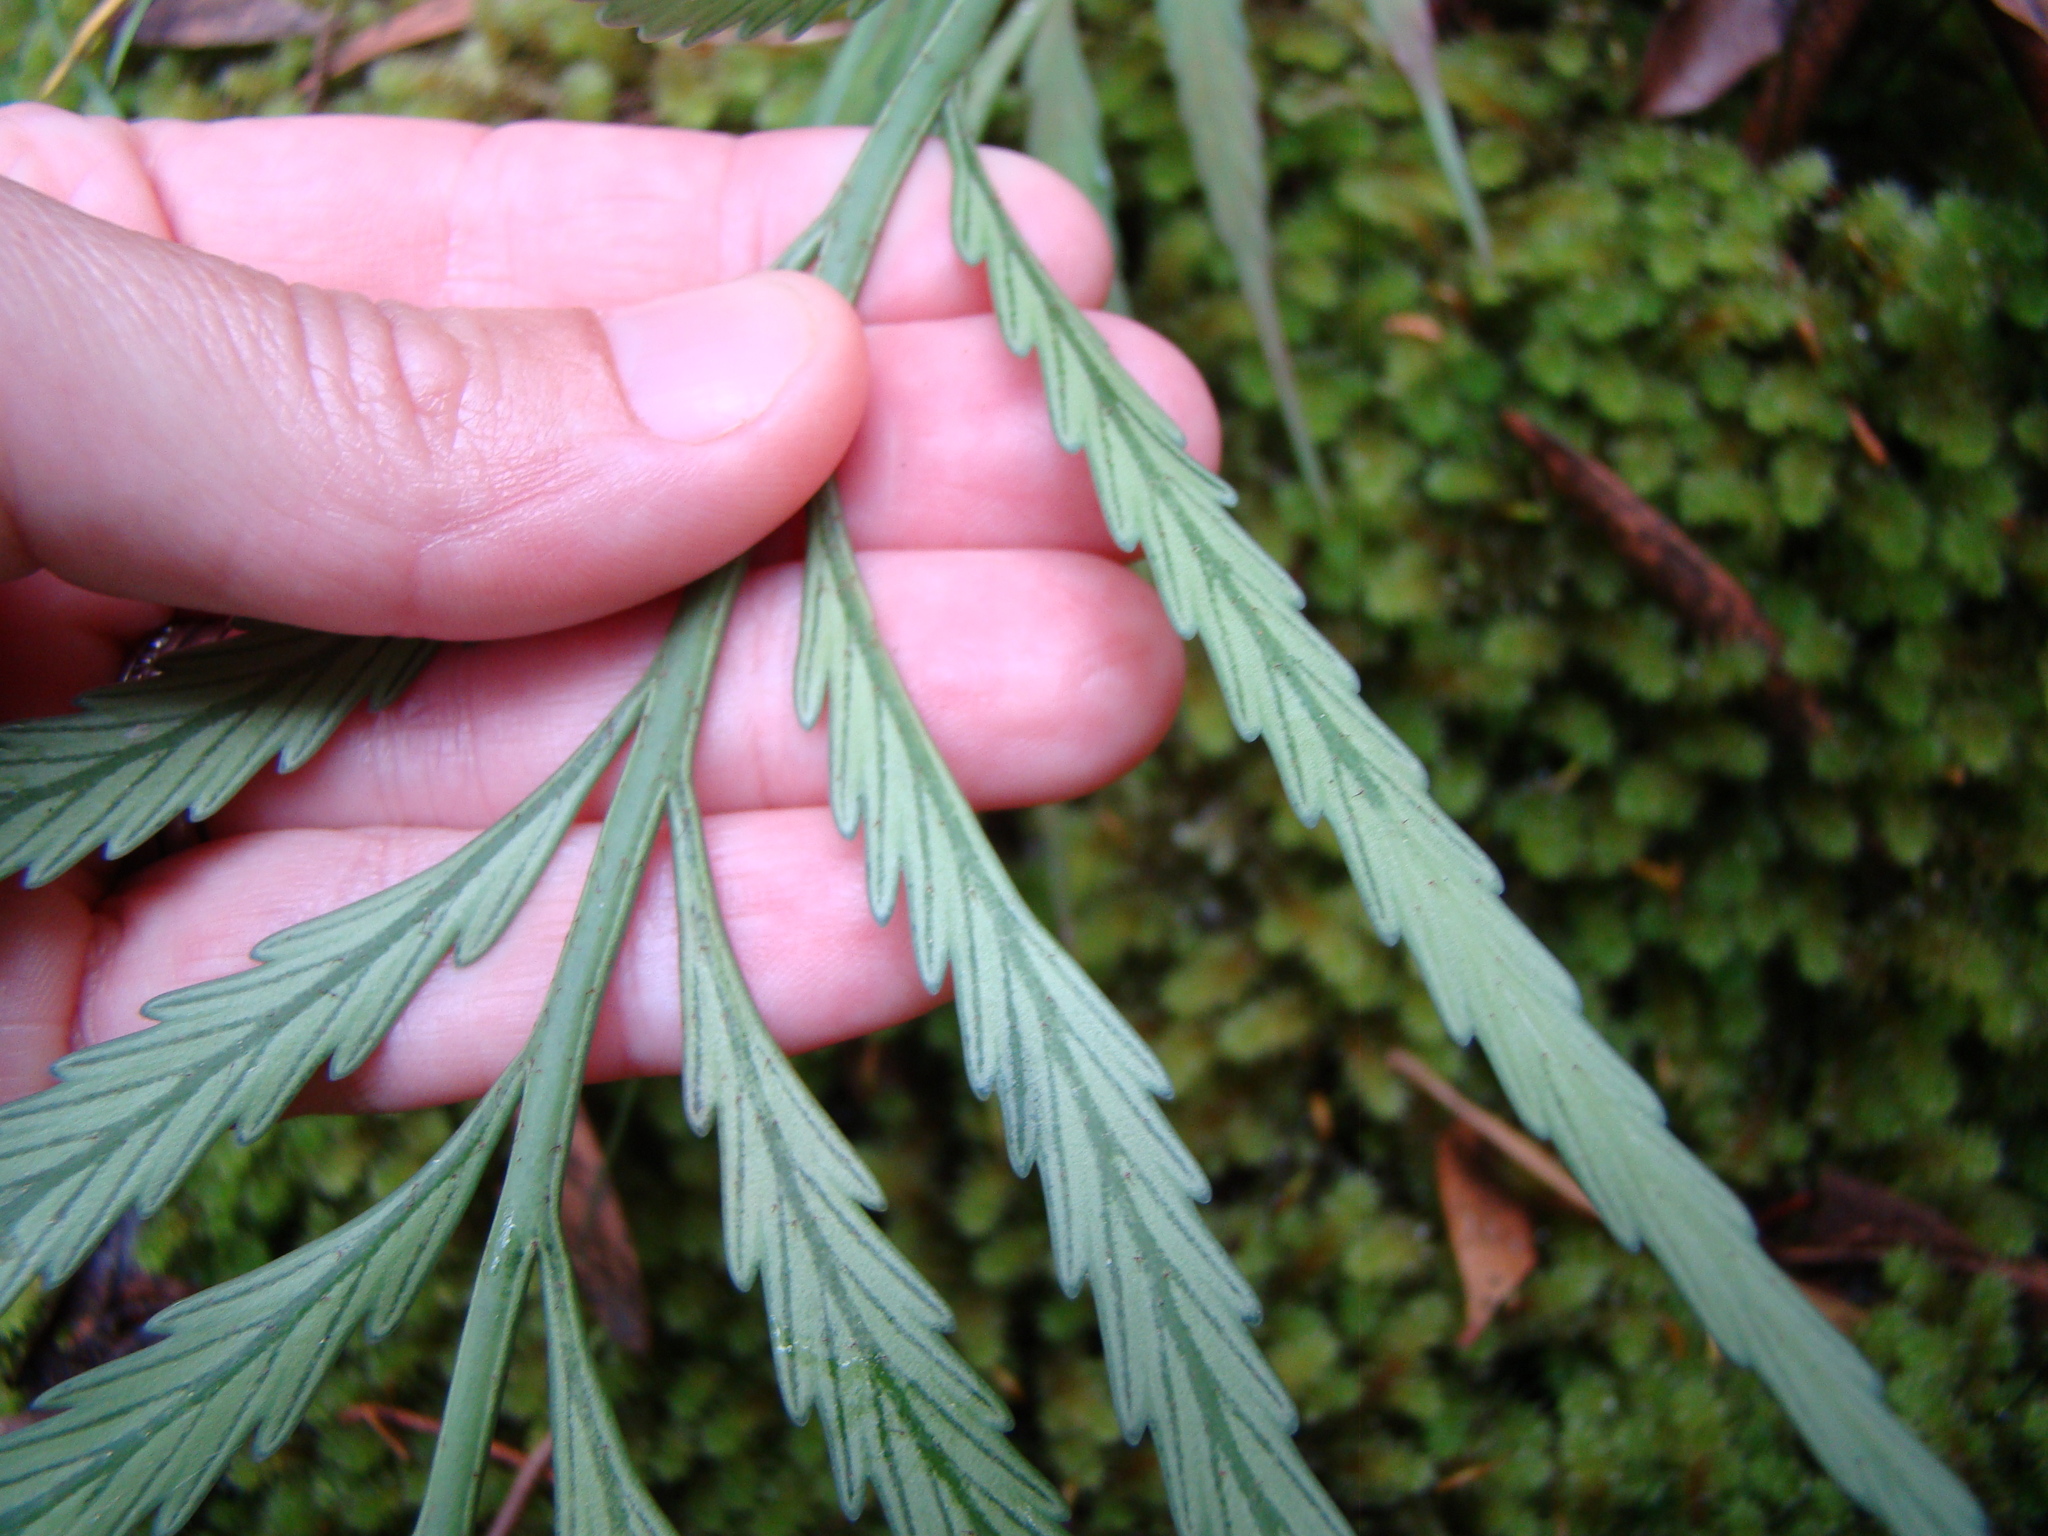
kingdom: Plantae
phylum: Tracheophyta
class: Polypodiopsida
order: Polypodiales
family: Aspleniaceae
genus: Asplenium
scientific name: Asplenium flaccidum
